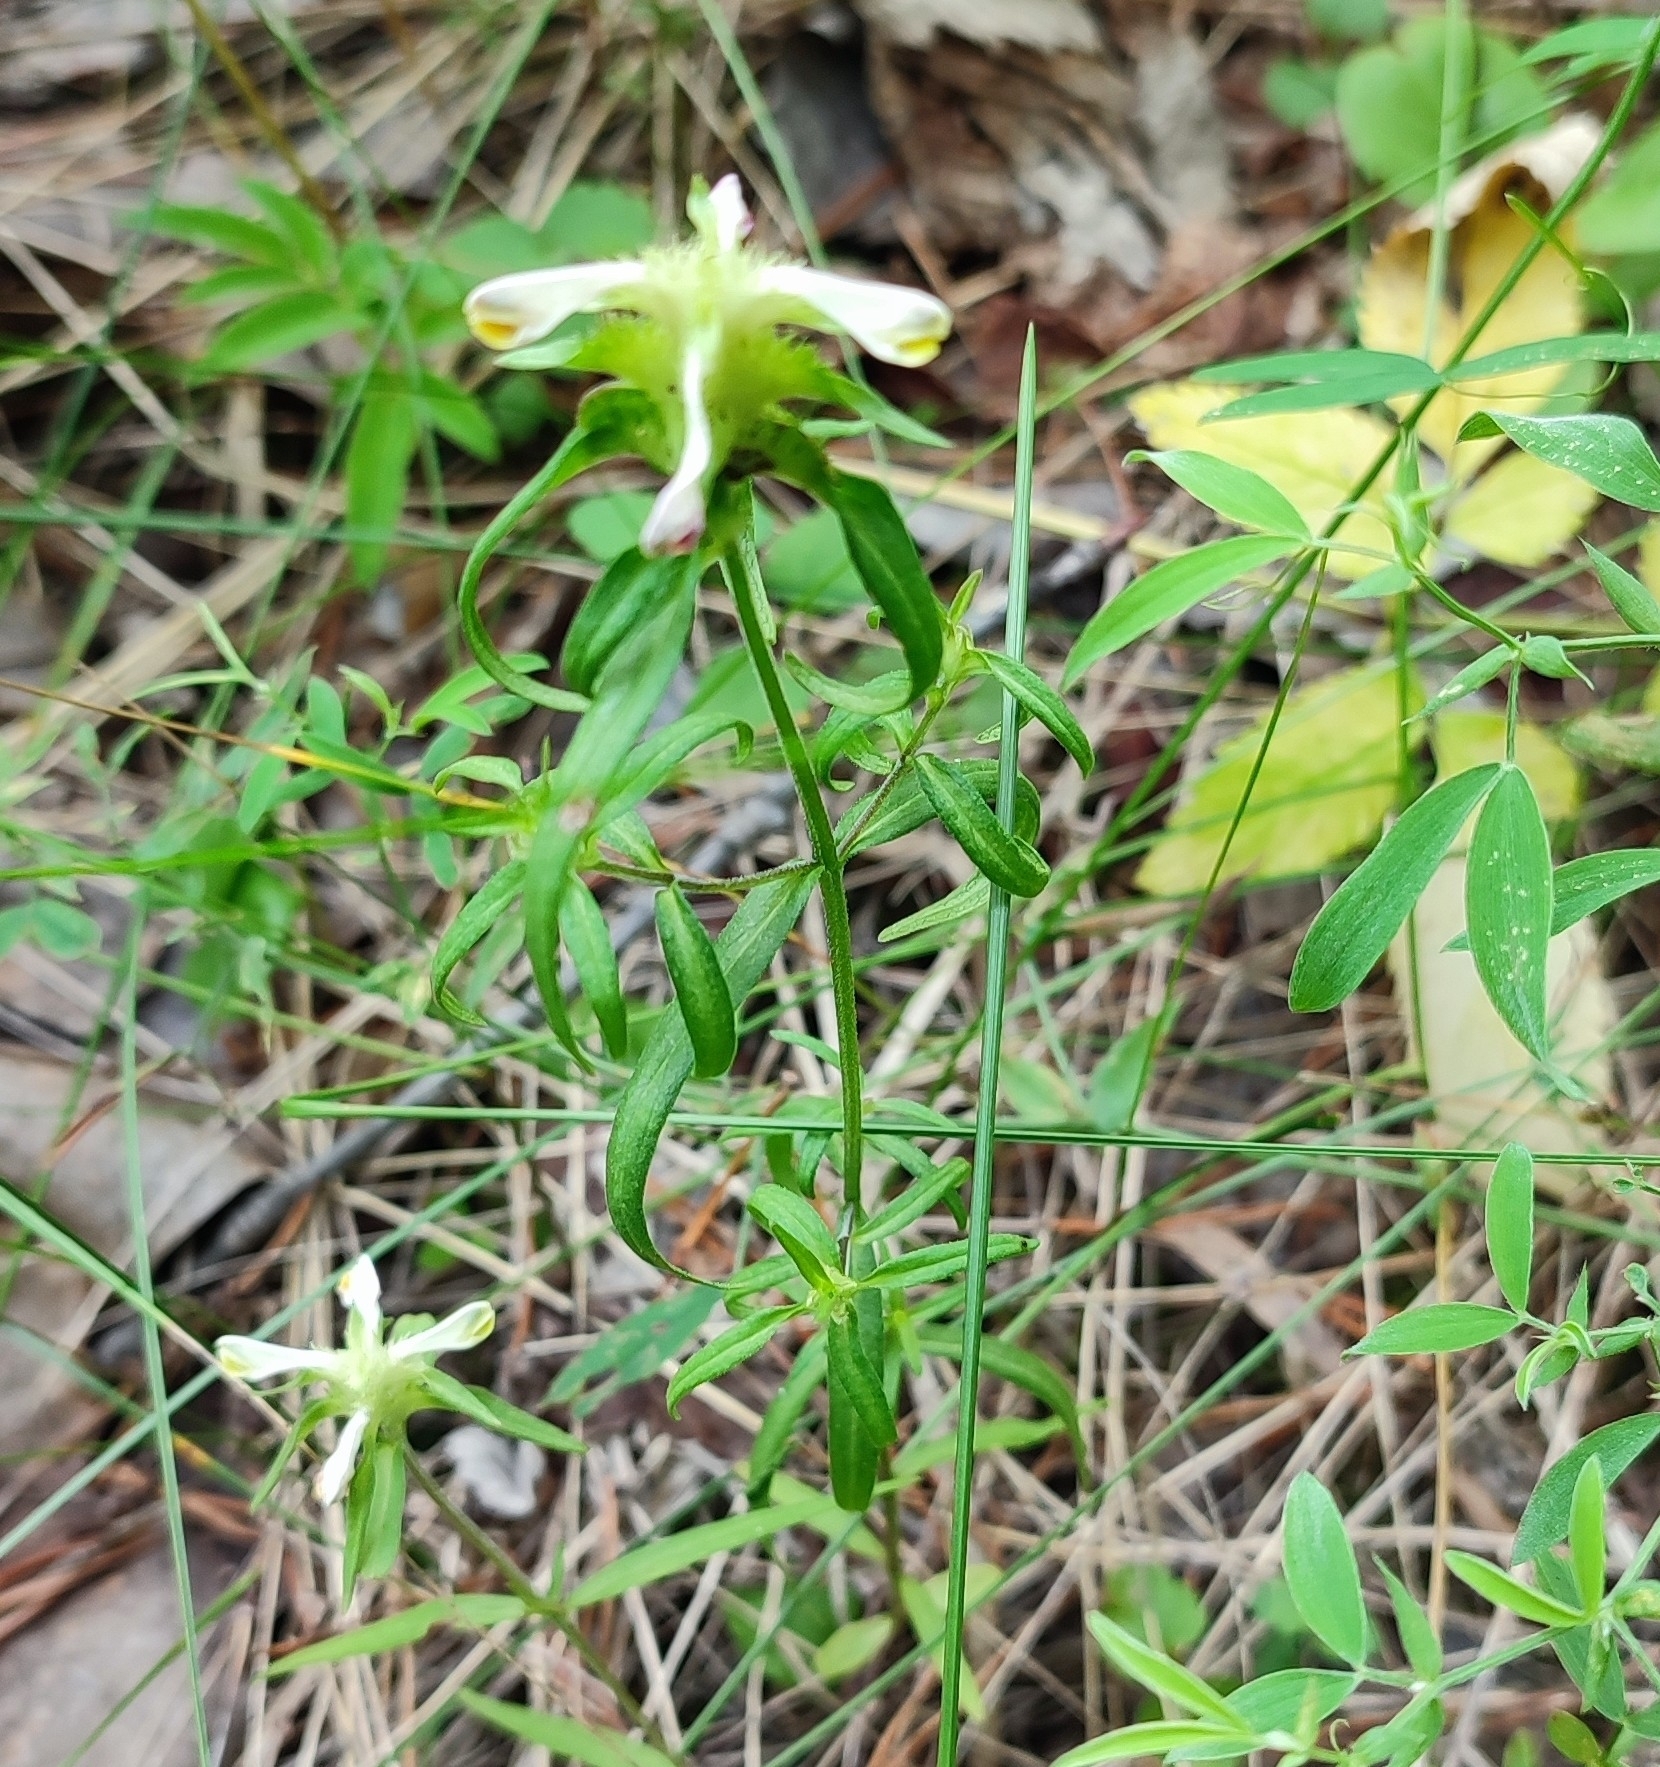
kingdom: Plantae
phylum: Tracheophyta
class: Magnoliopsida
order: Lamiales
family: Orobanchaceae
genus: Melampyrum
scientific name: Melampyrum cristatum
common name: Crested cow-wheat
